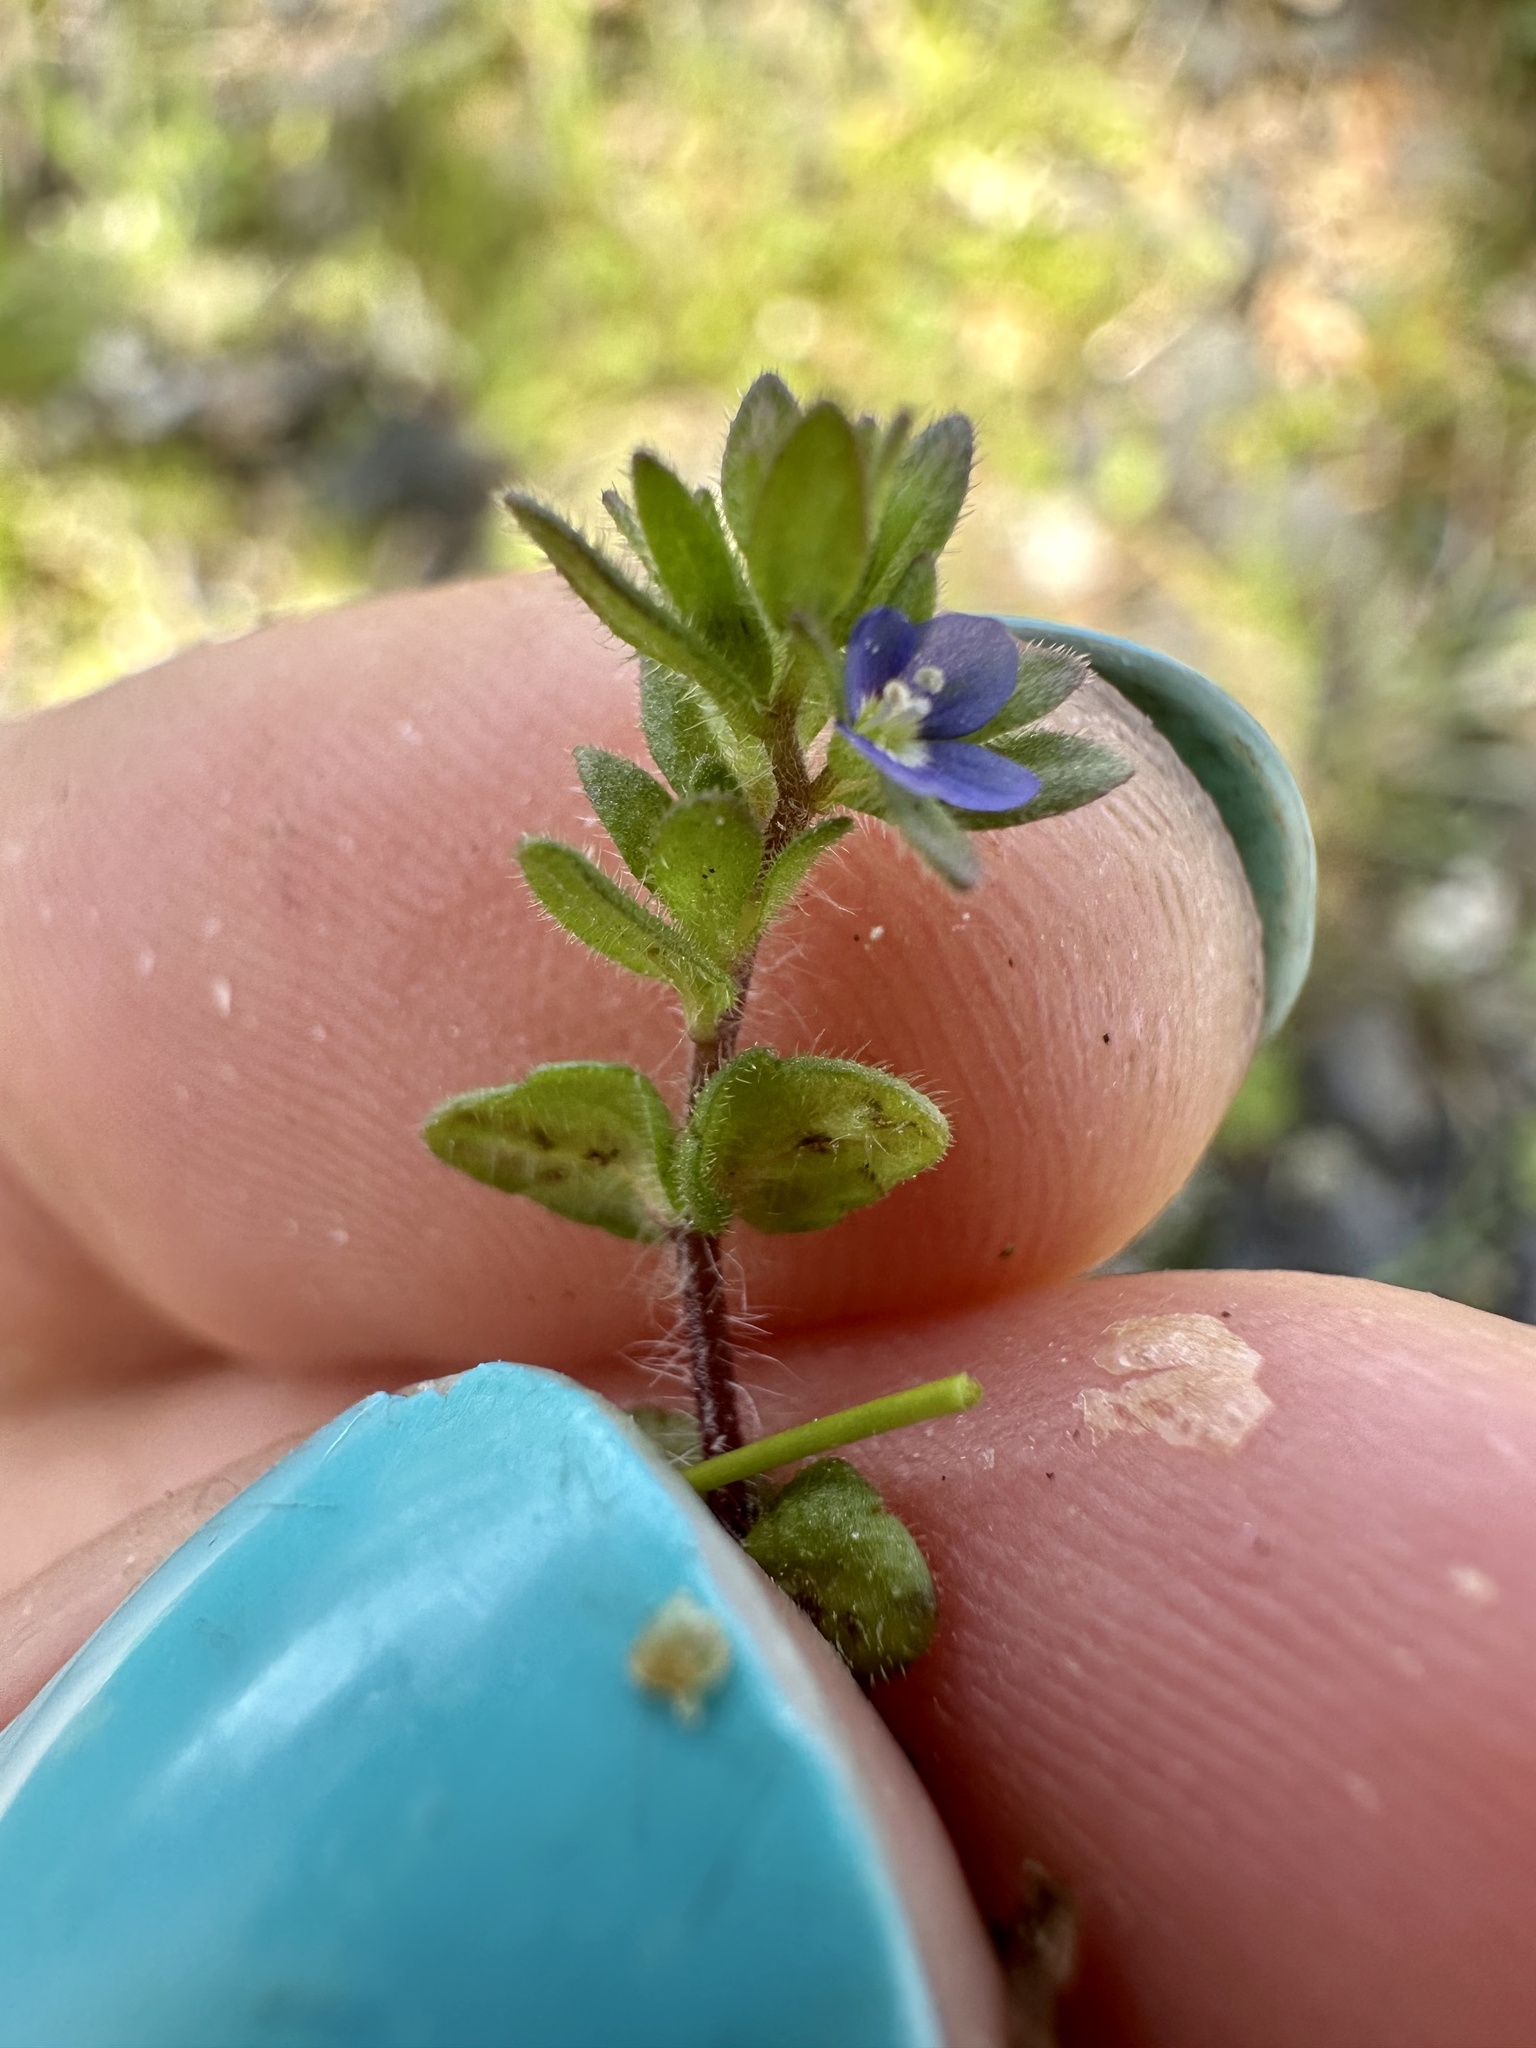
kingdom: Plantae
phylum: Tracheophyta
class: Magnoliopsida
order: Lamiales
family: Plantaginaceae
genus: Veronica
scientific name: Veronica arvensis
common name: Corn speedwell
